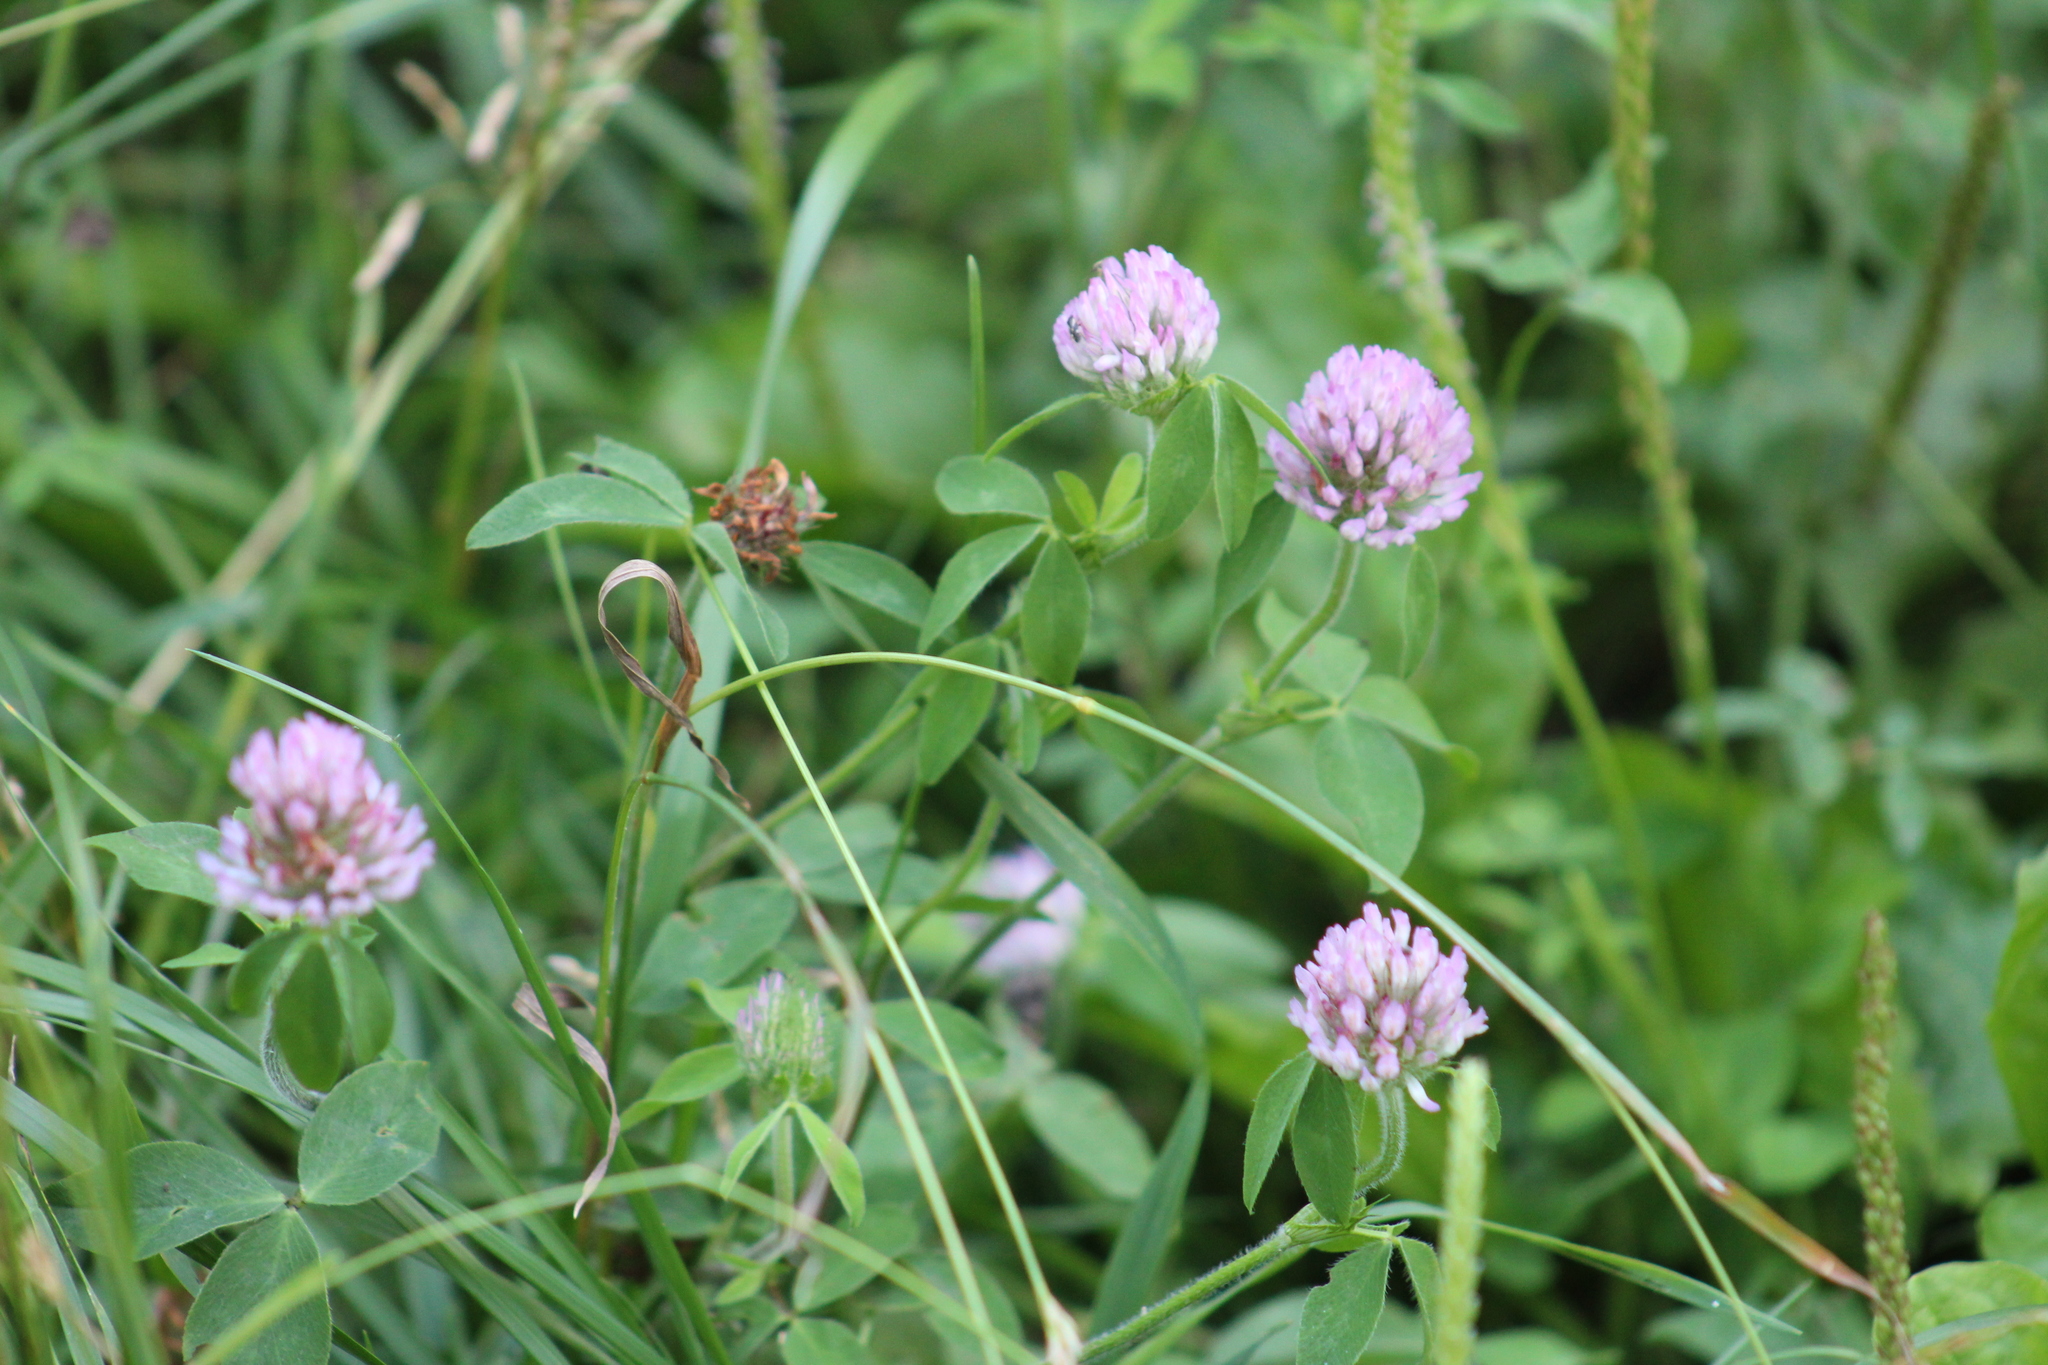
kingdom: Plantae
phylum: Tracheophyta
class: Magnoliopsida
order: Fabales
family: Fabaceae
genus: Trifolium
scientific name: Trifolium pratense
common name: Red clover
